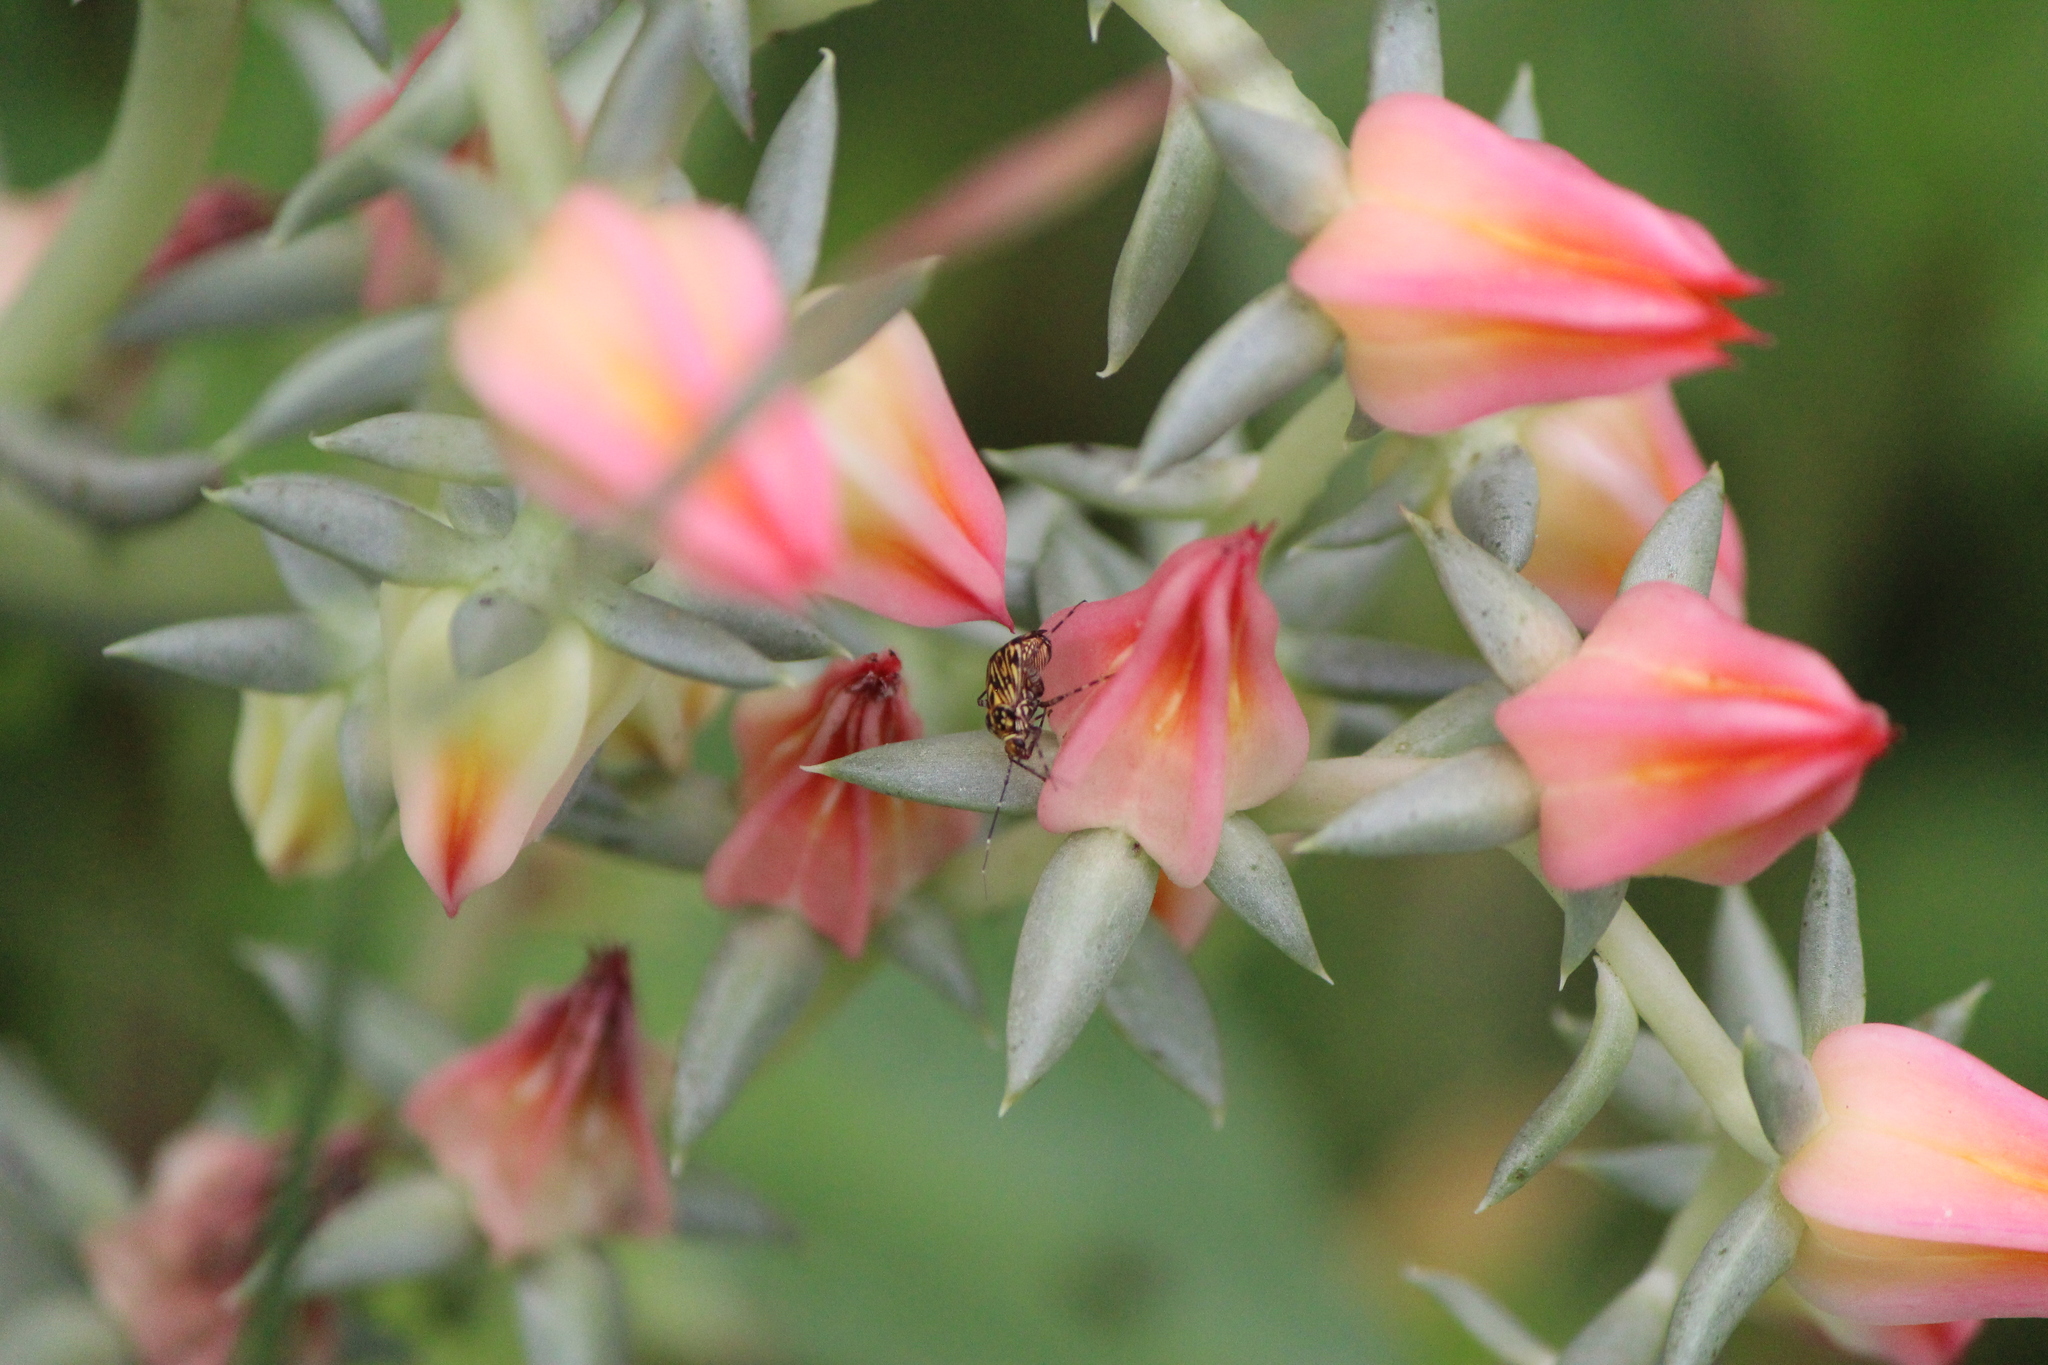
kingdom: Animalia
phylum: Arthropoda
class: Insecta
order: Hemiptera
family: Miridae
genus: Taedia
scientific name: Taedia fasciola
